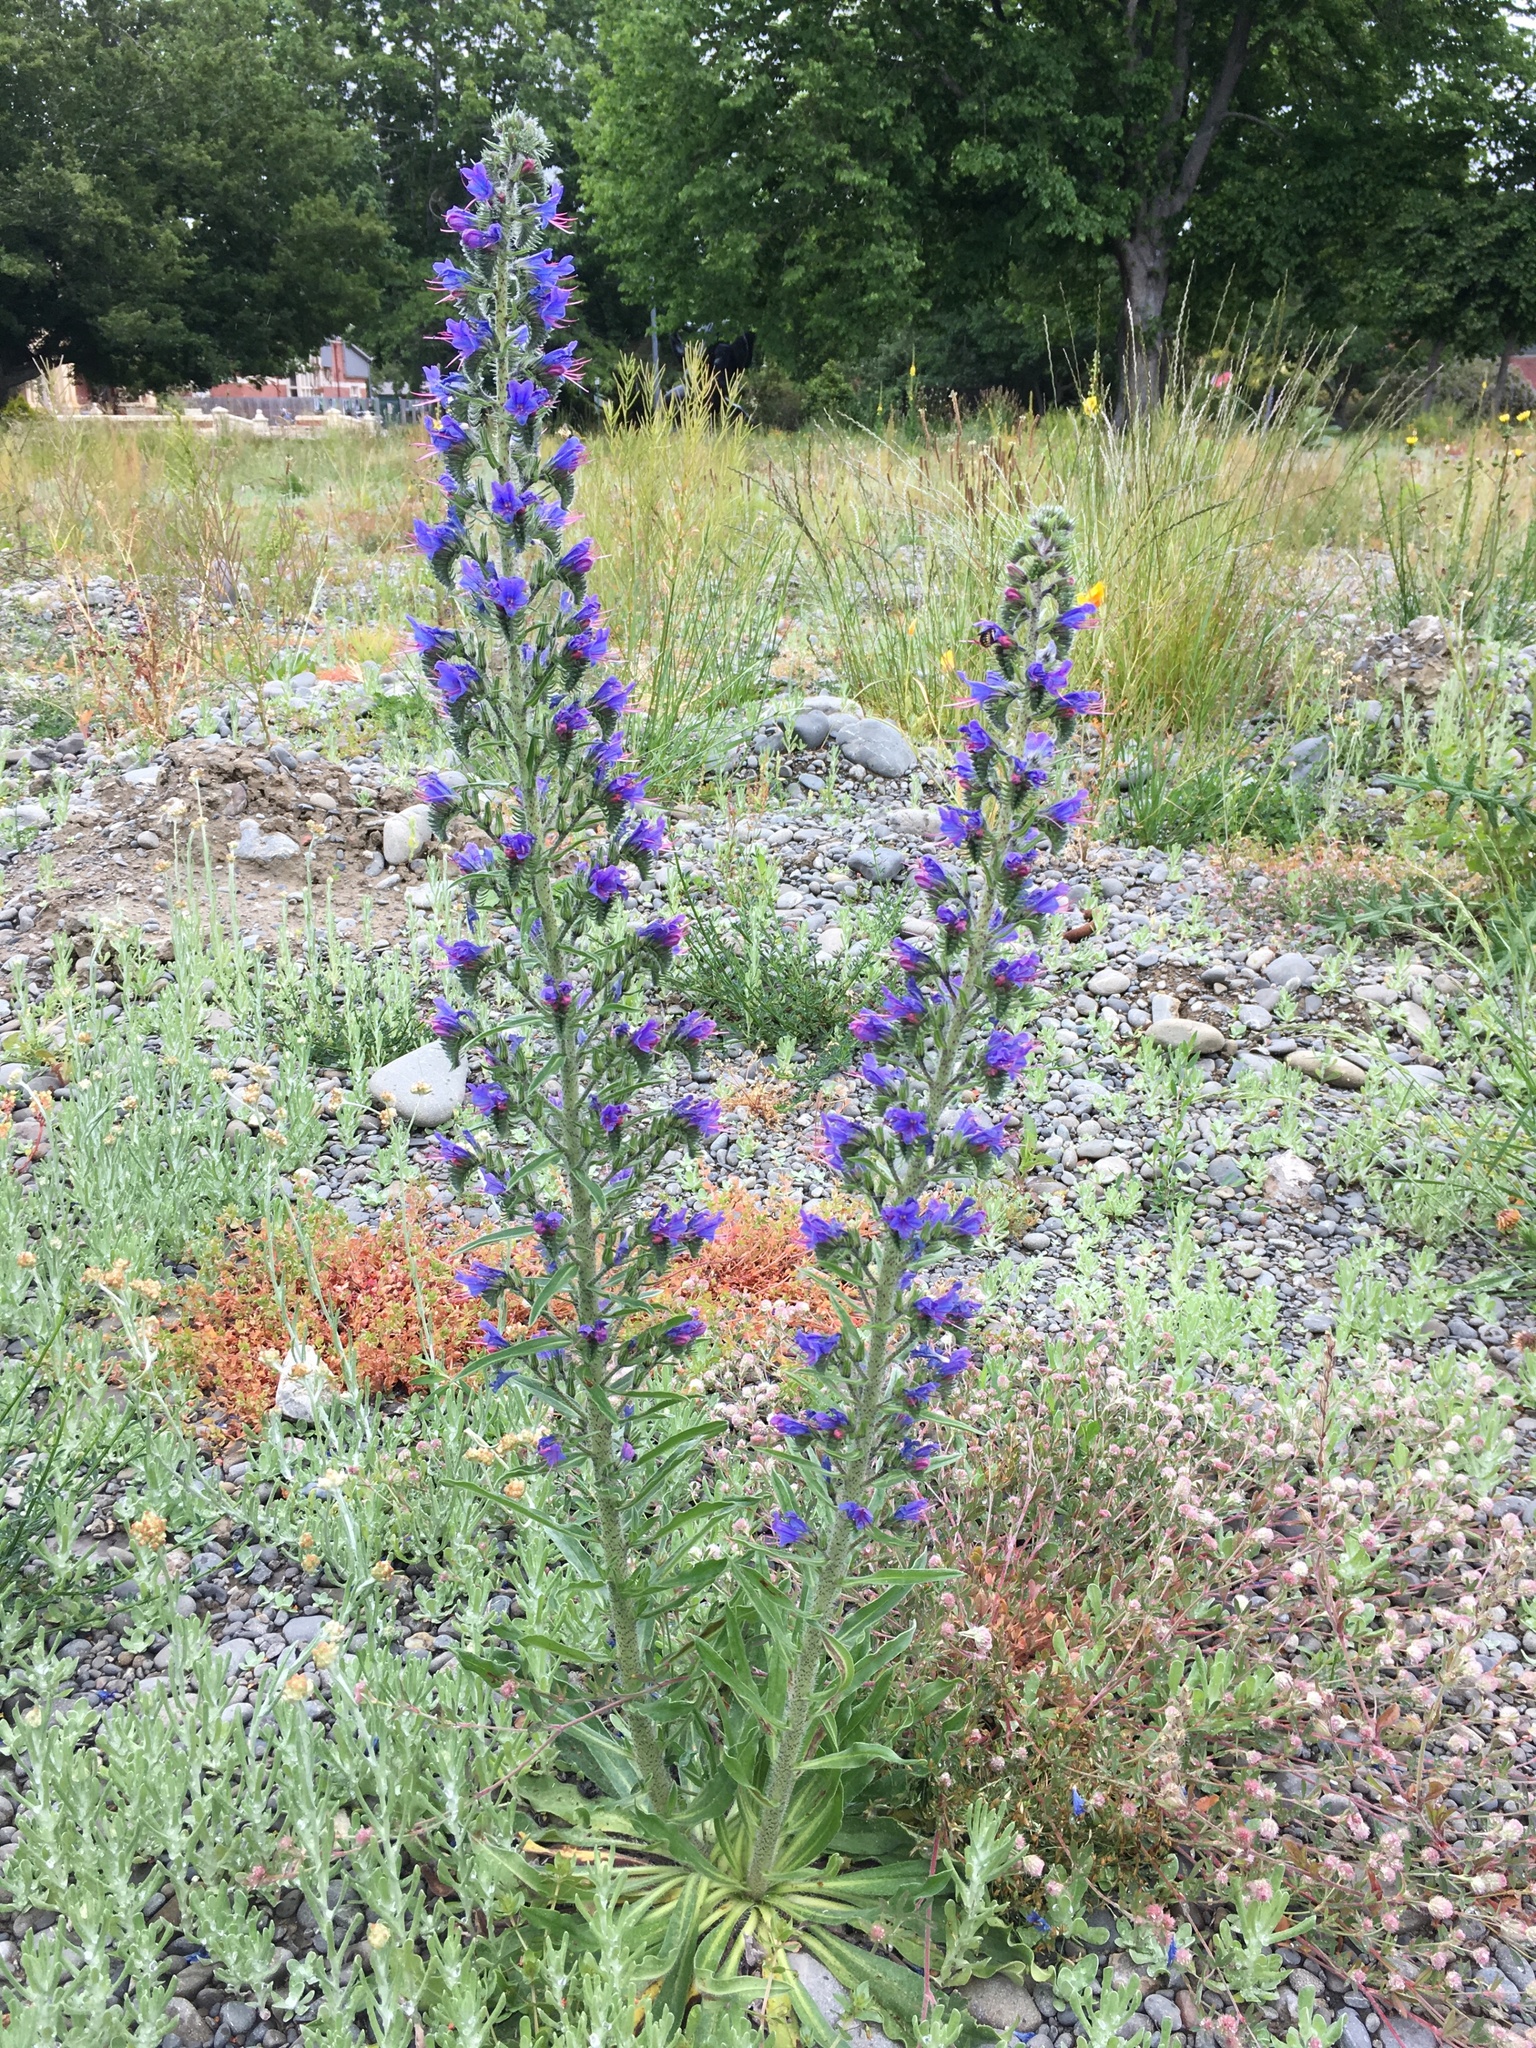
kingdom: Plantae
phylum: Tracheophyta
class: Magnoliopsida
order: Boraginales
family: Boraginaceae
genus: Echium
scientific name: Echium vulgare
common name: Common viper's bugloss
